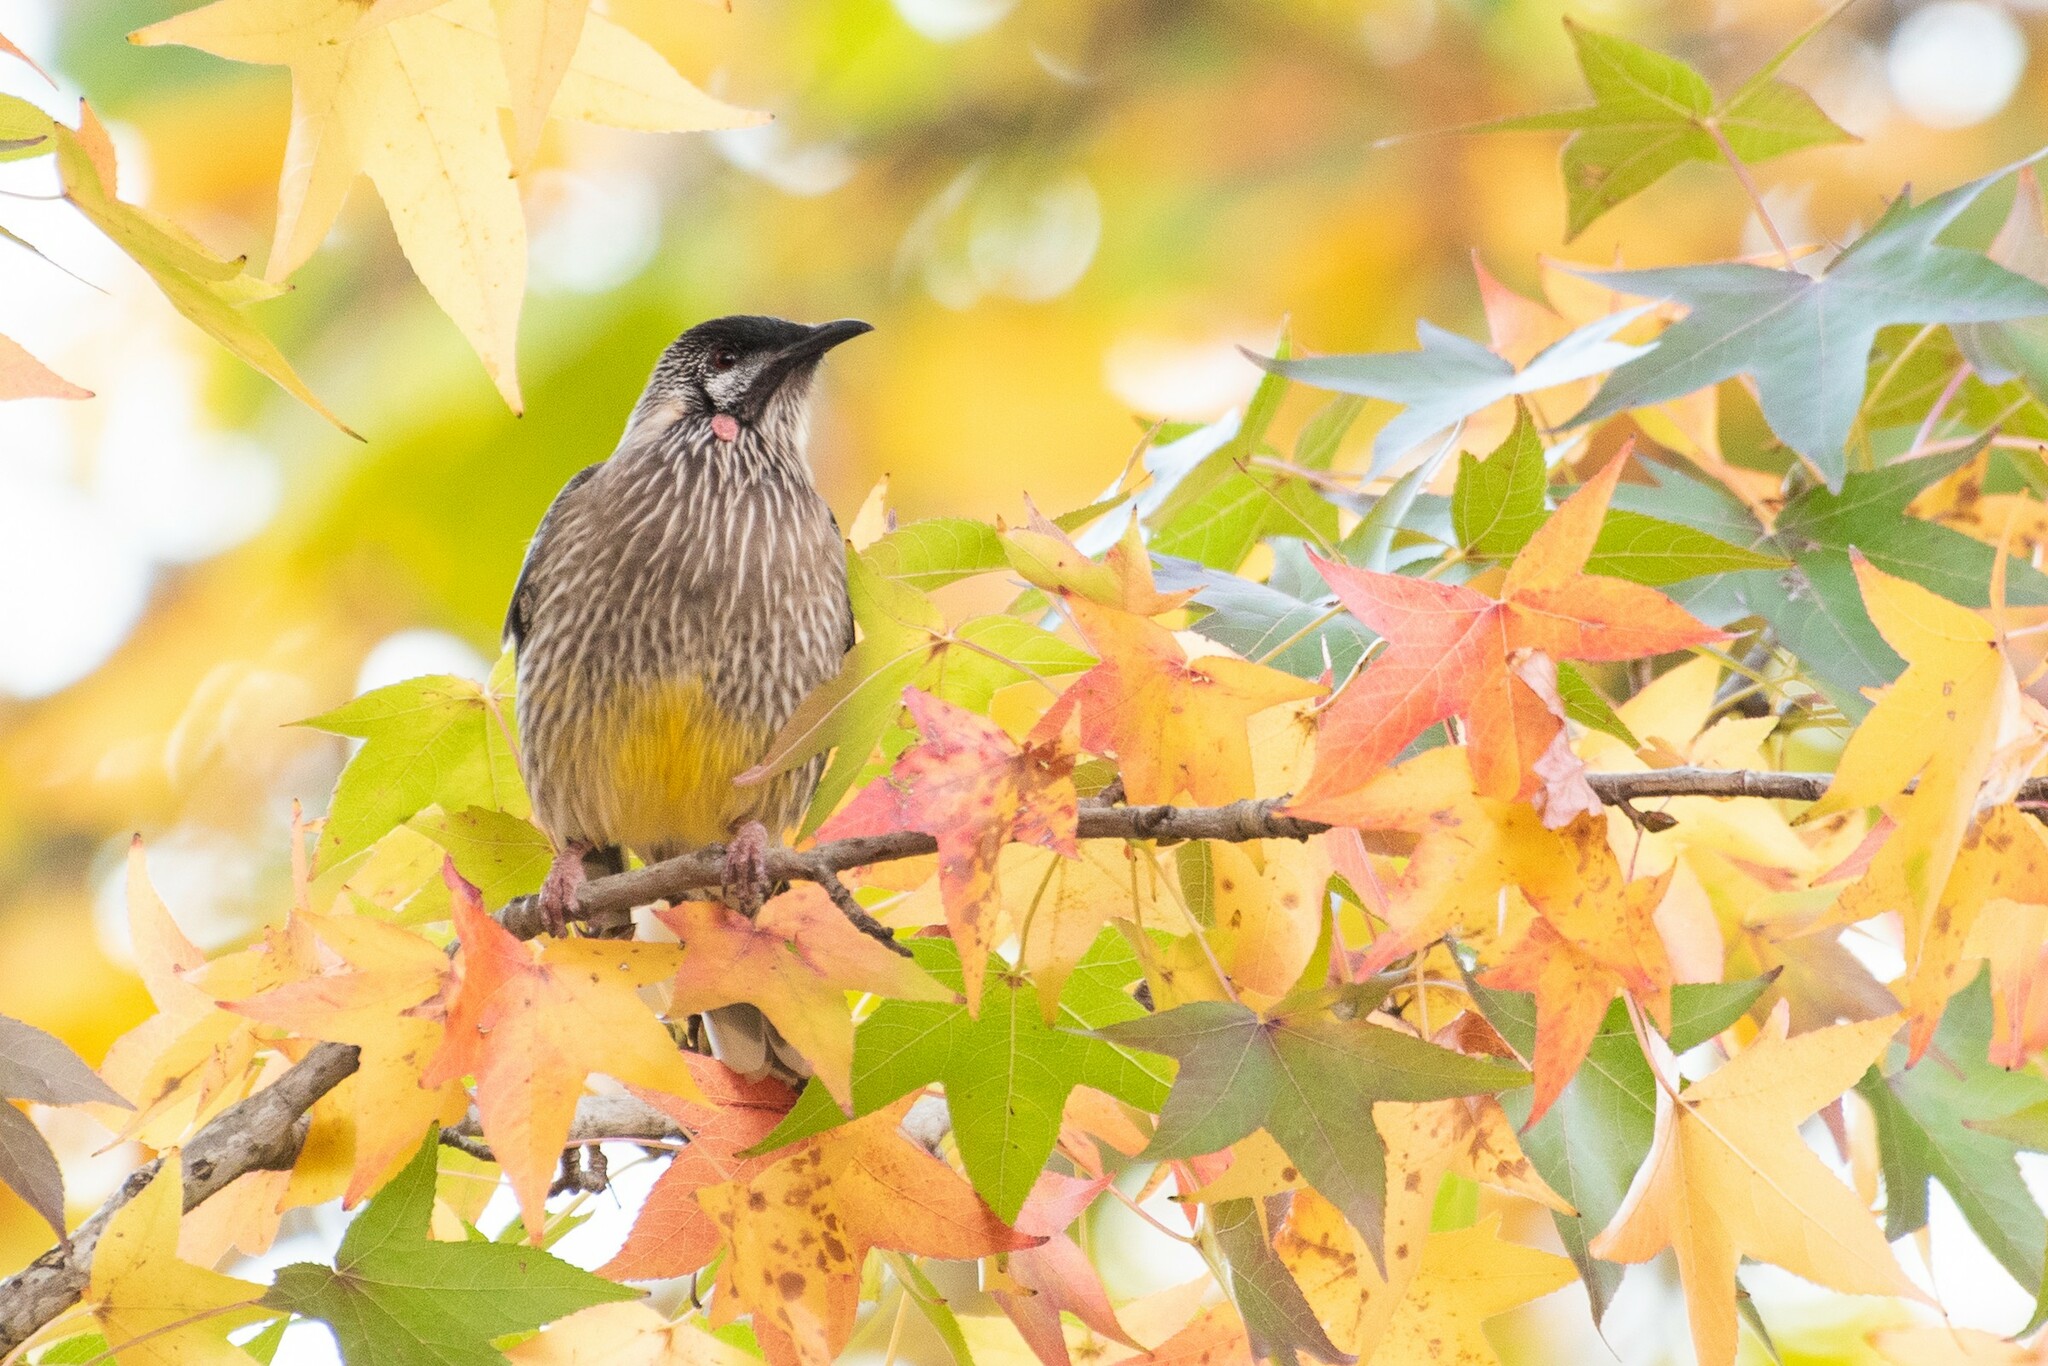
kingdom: Animalia
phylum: Chordata
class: Aves
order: Passeriformes
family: Meliphagidae
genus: Anthochaera
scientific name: Anthochaera carunculata
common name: Red wattlebird
